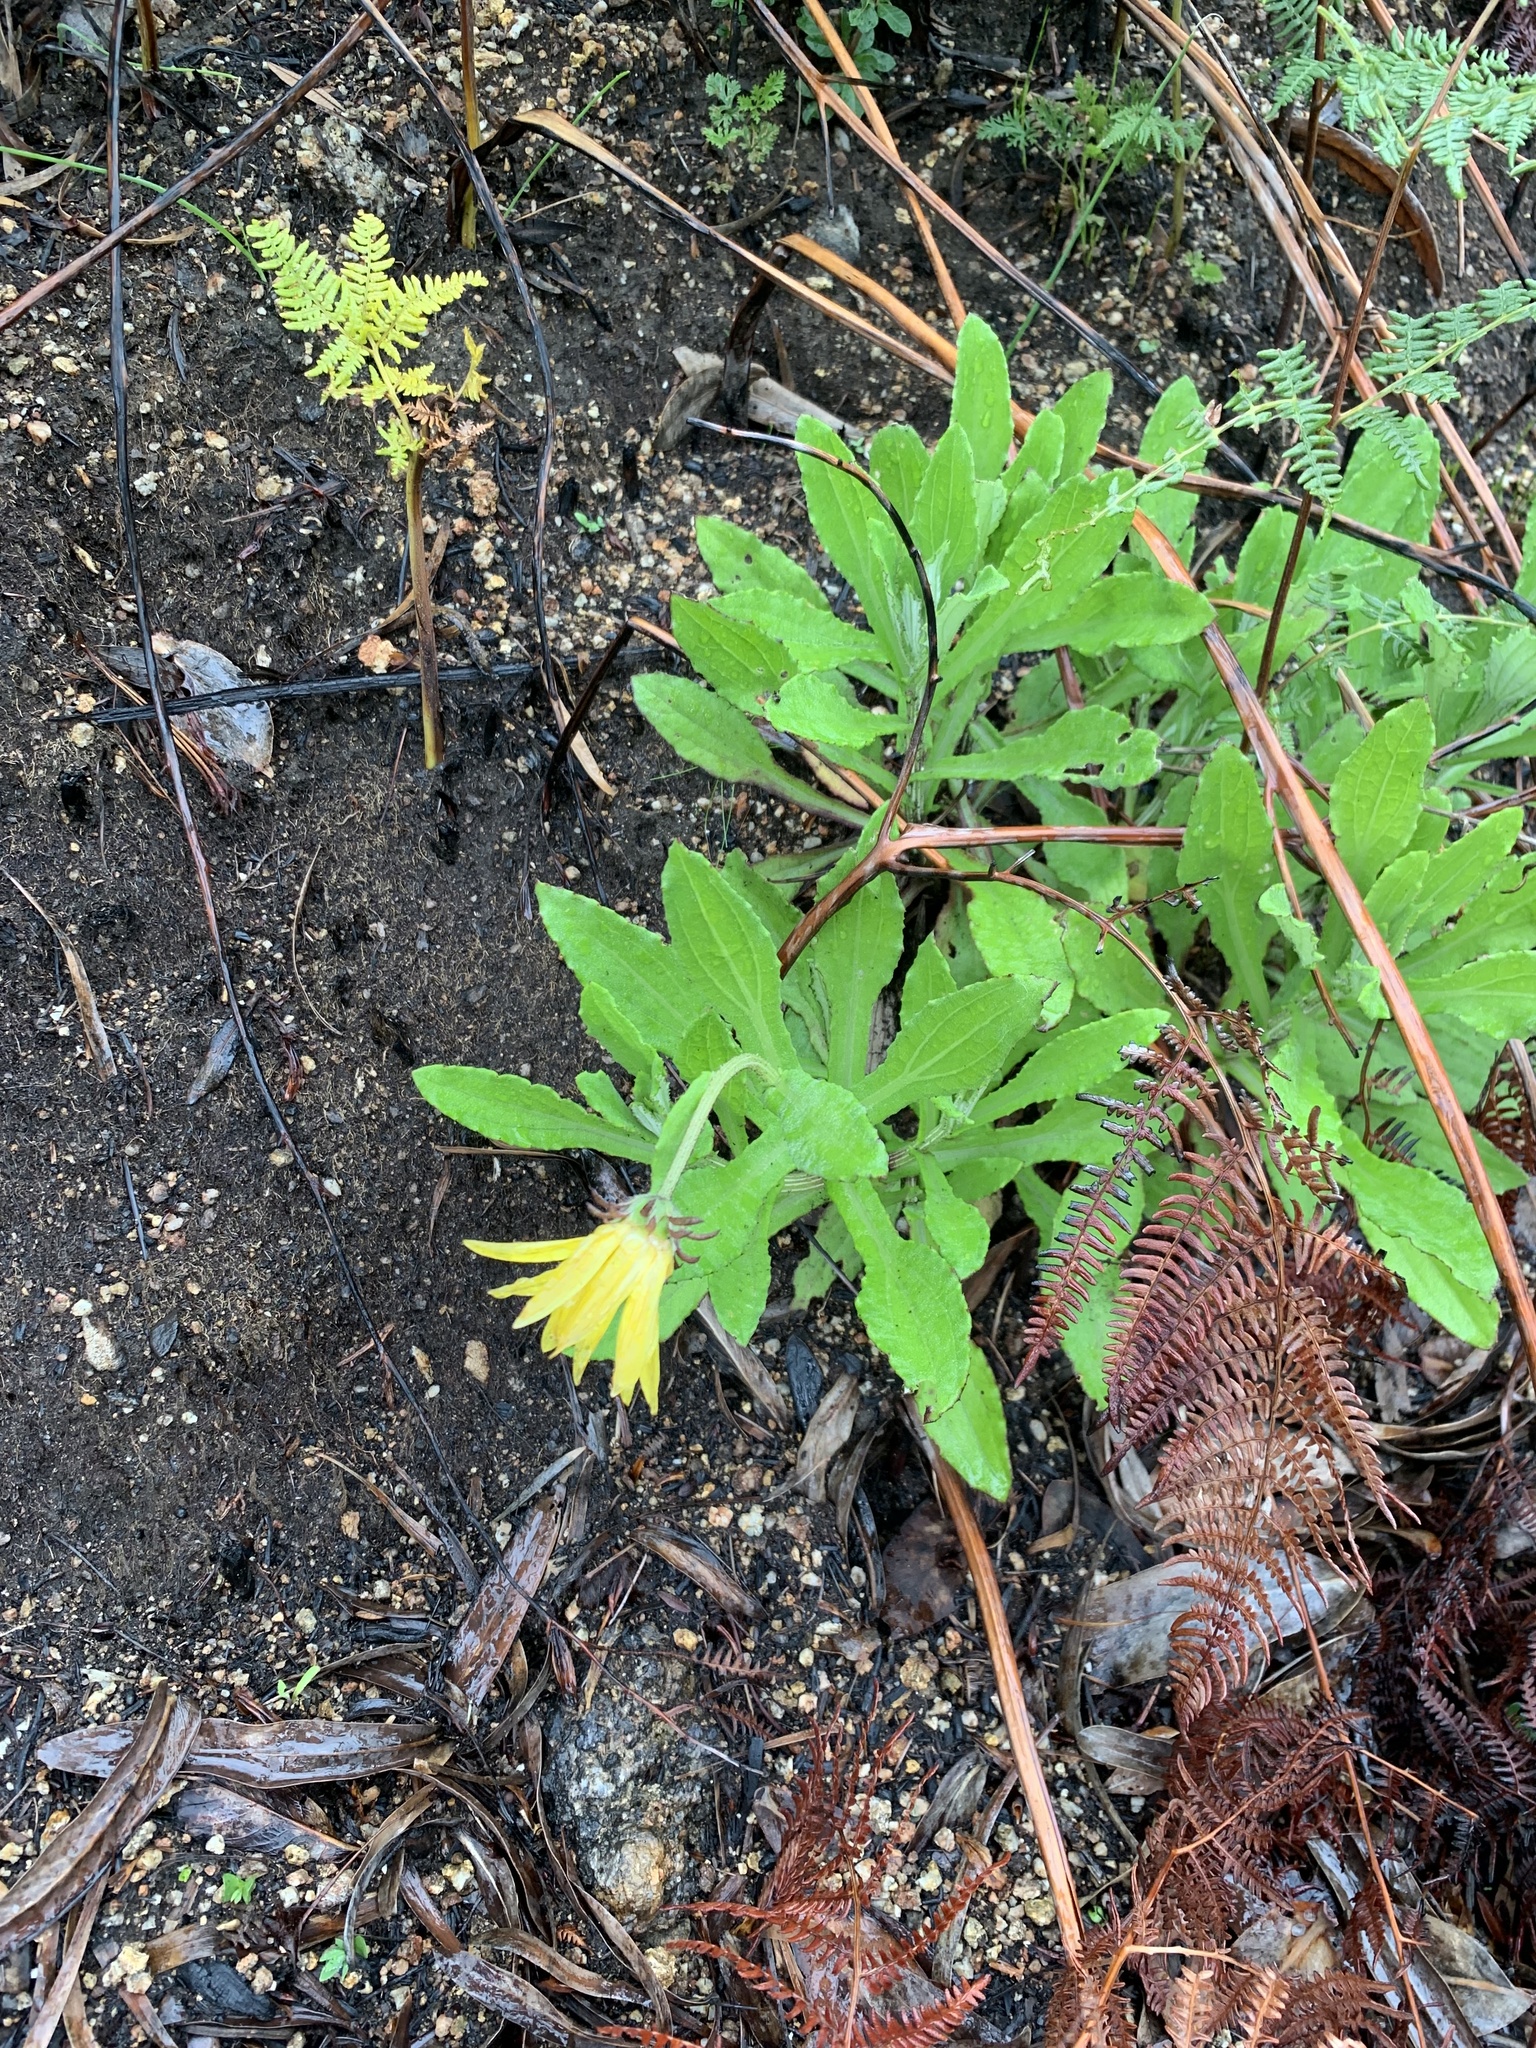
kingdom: Plantae
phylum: Tracheophyta
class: Magnoliopsida
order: Asterales
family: Asteraceae
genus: Arctotis
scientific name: Arctotis scabra
